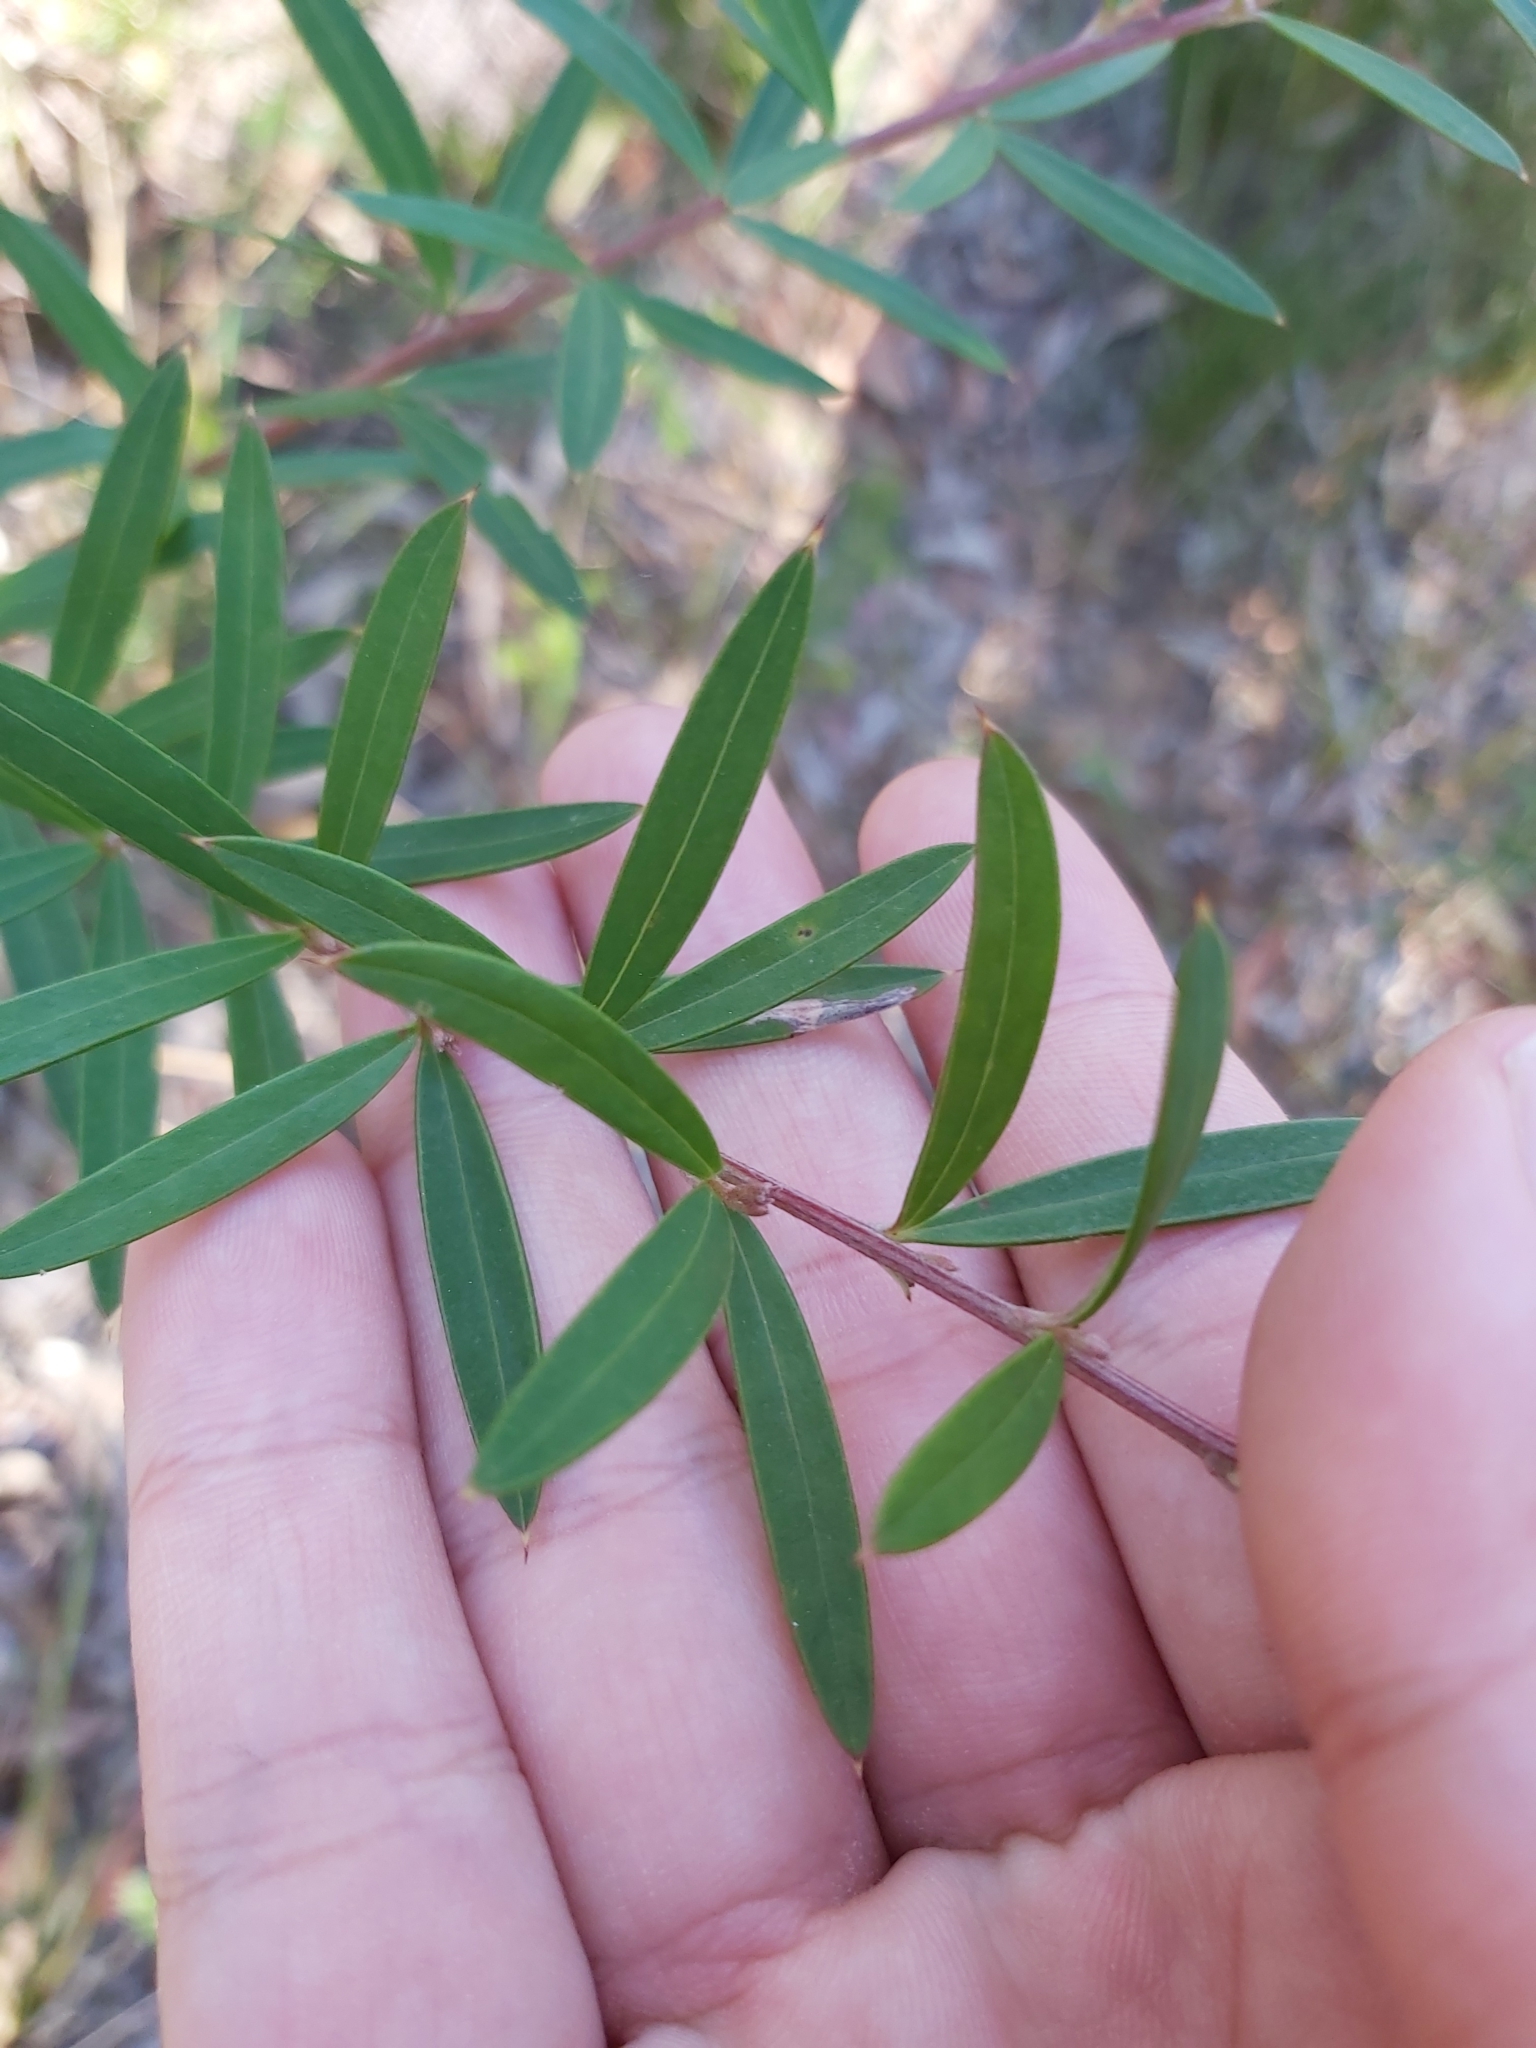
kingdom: Plantae
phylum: Tracheophyta
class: Magnoliopsida
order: Proteales
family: Proteaceae
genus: Grevillea
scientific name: Grevillea sericea
